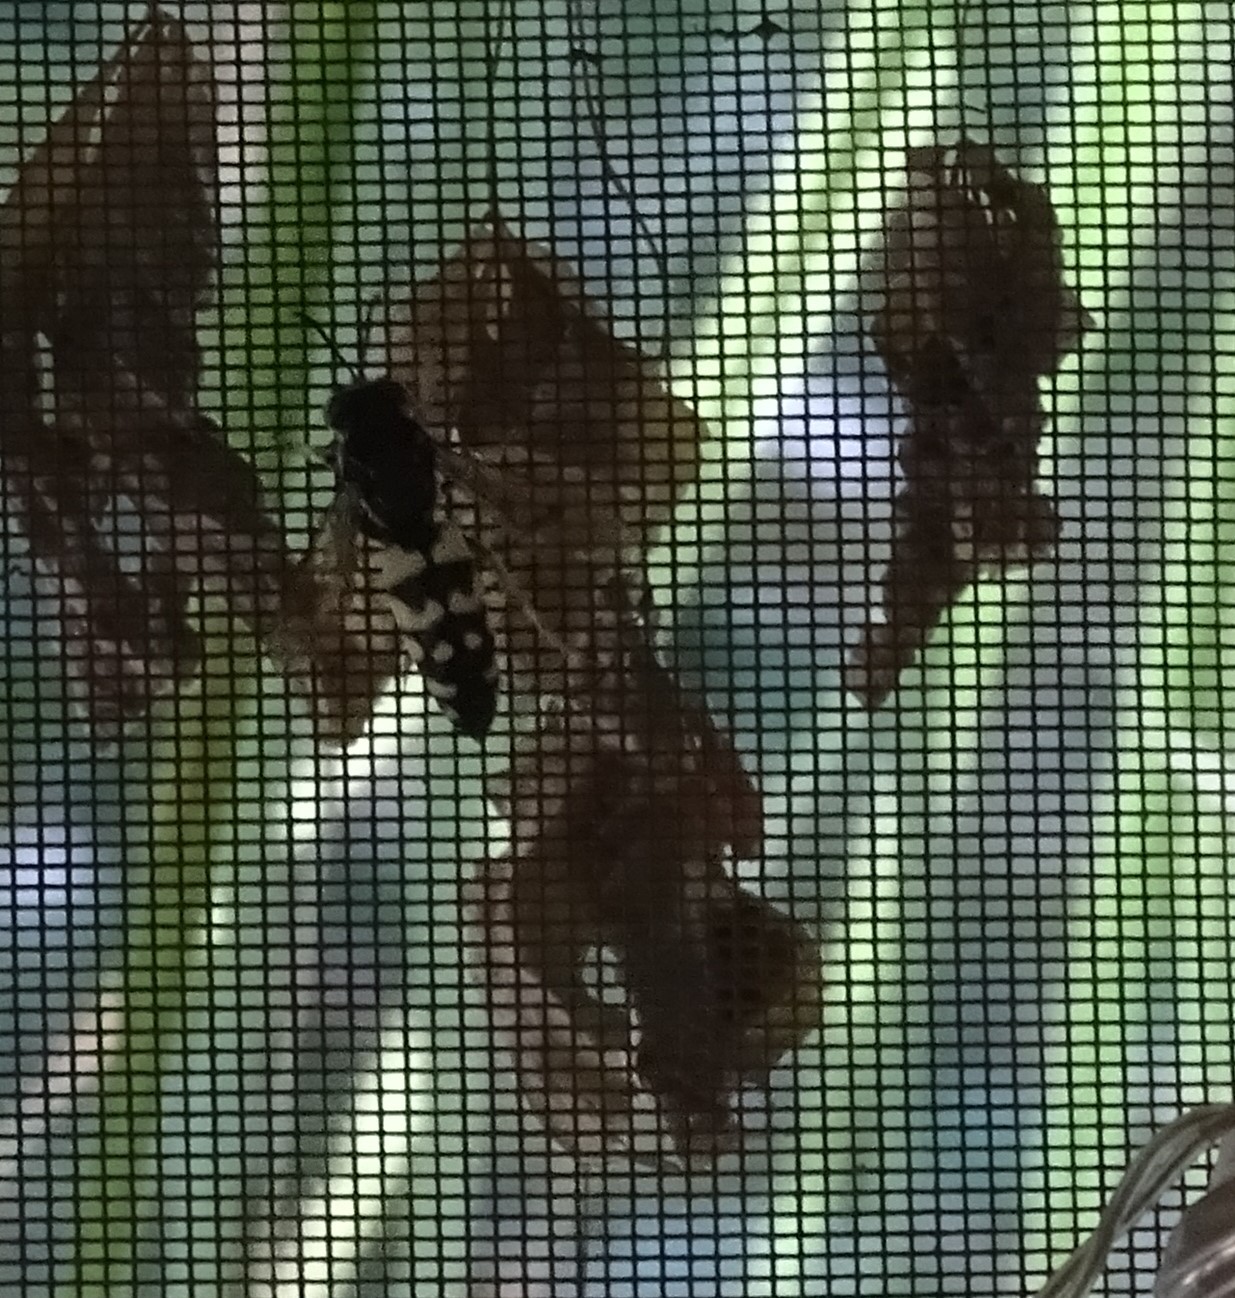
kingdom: Animalia
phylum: Arthropoda
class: Insecta
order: Hymenoptera
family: Crabronidae
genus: Stictia
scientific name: Stictia carolina
